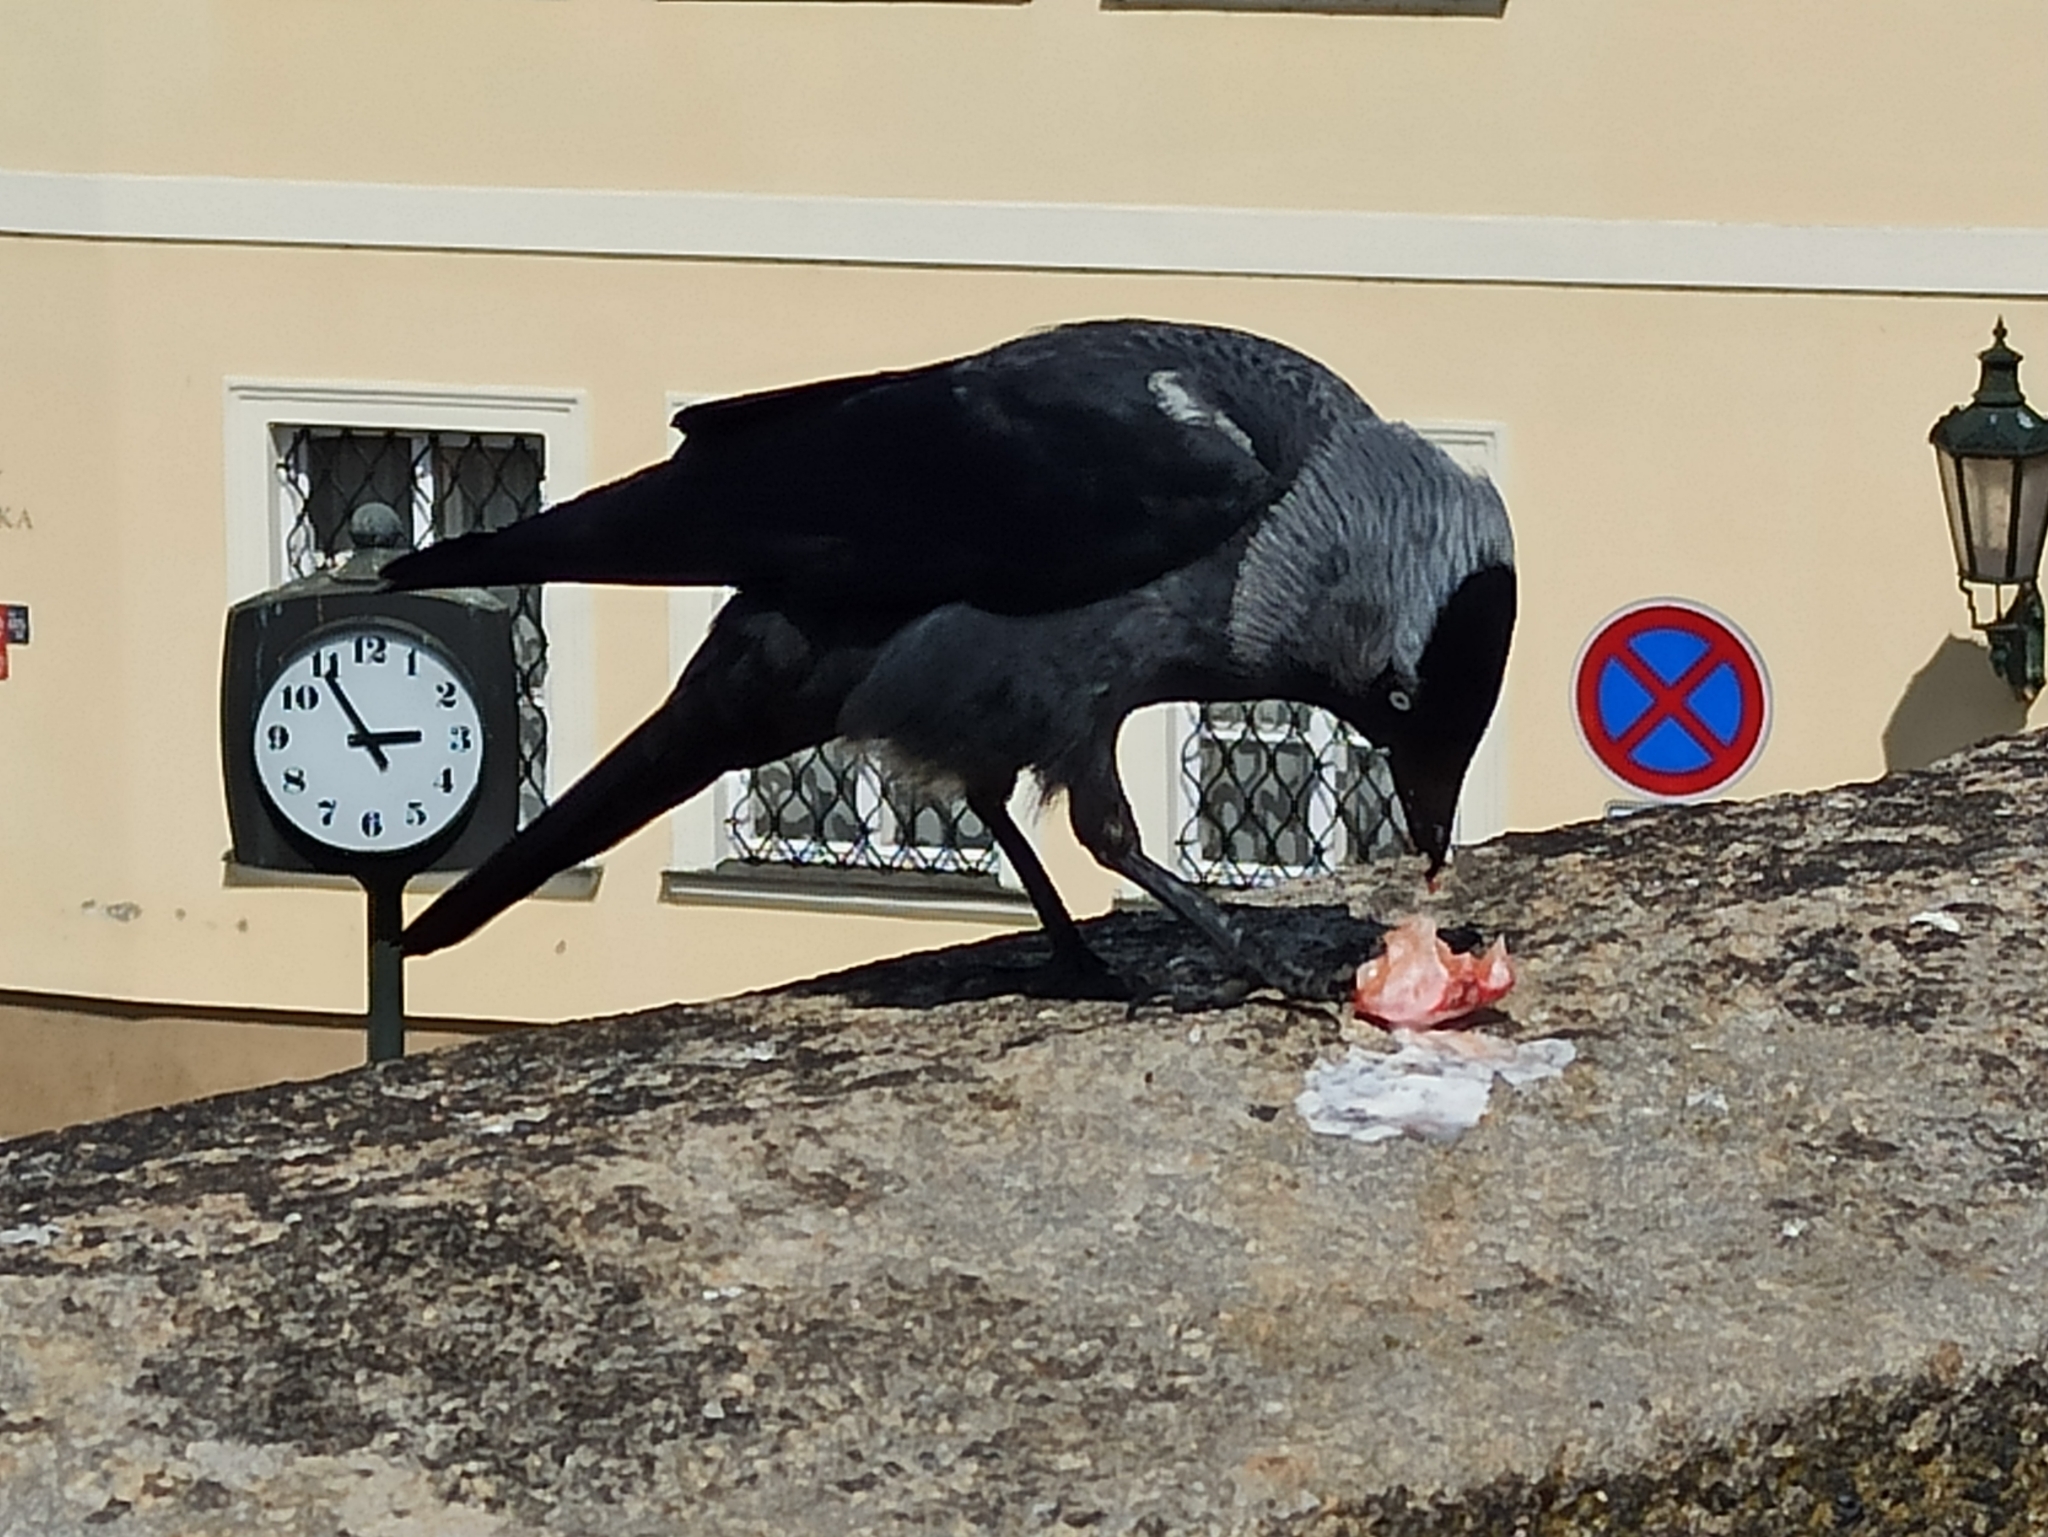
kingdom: Animalia
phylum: Chordata
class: Aves
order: Passeriformes
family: Corvidae
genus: Coloeus
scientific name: Coloeus monedula
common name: Western jackdaw
